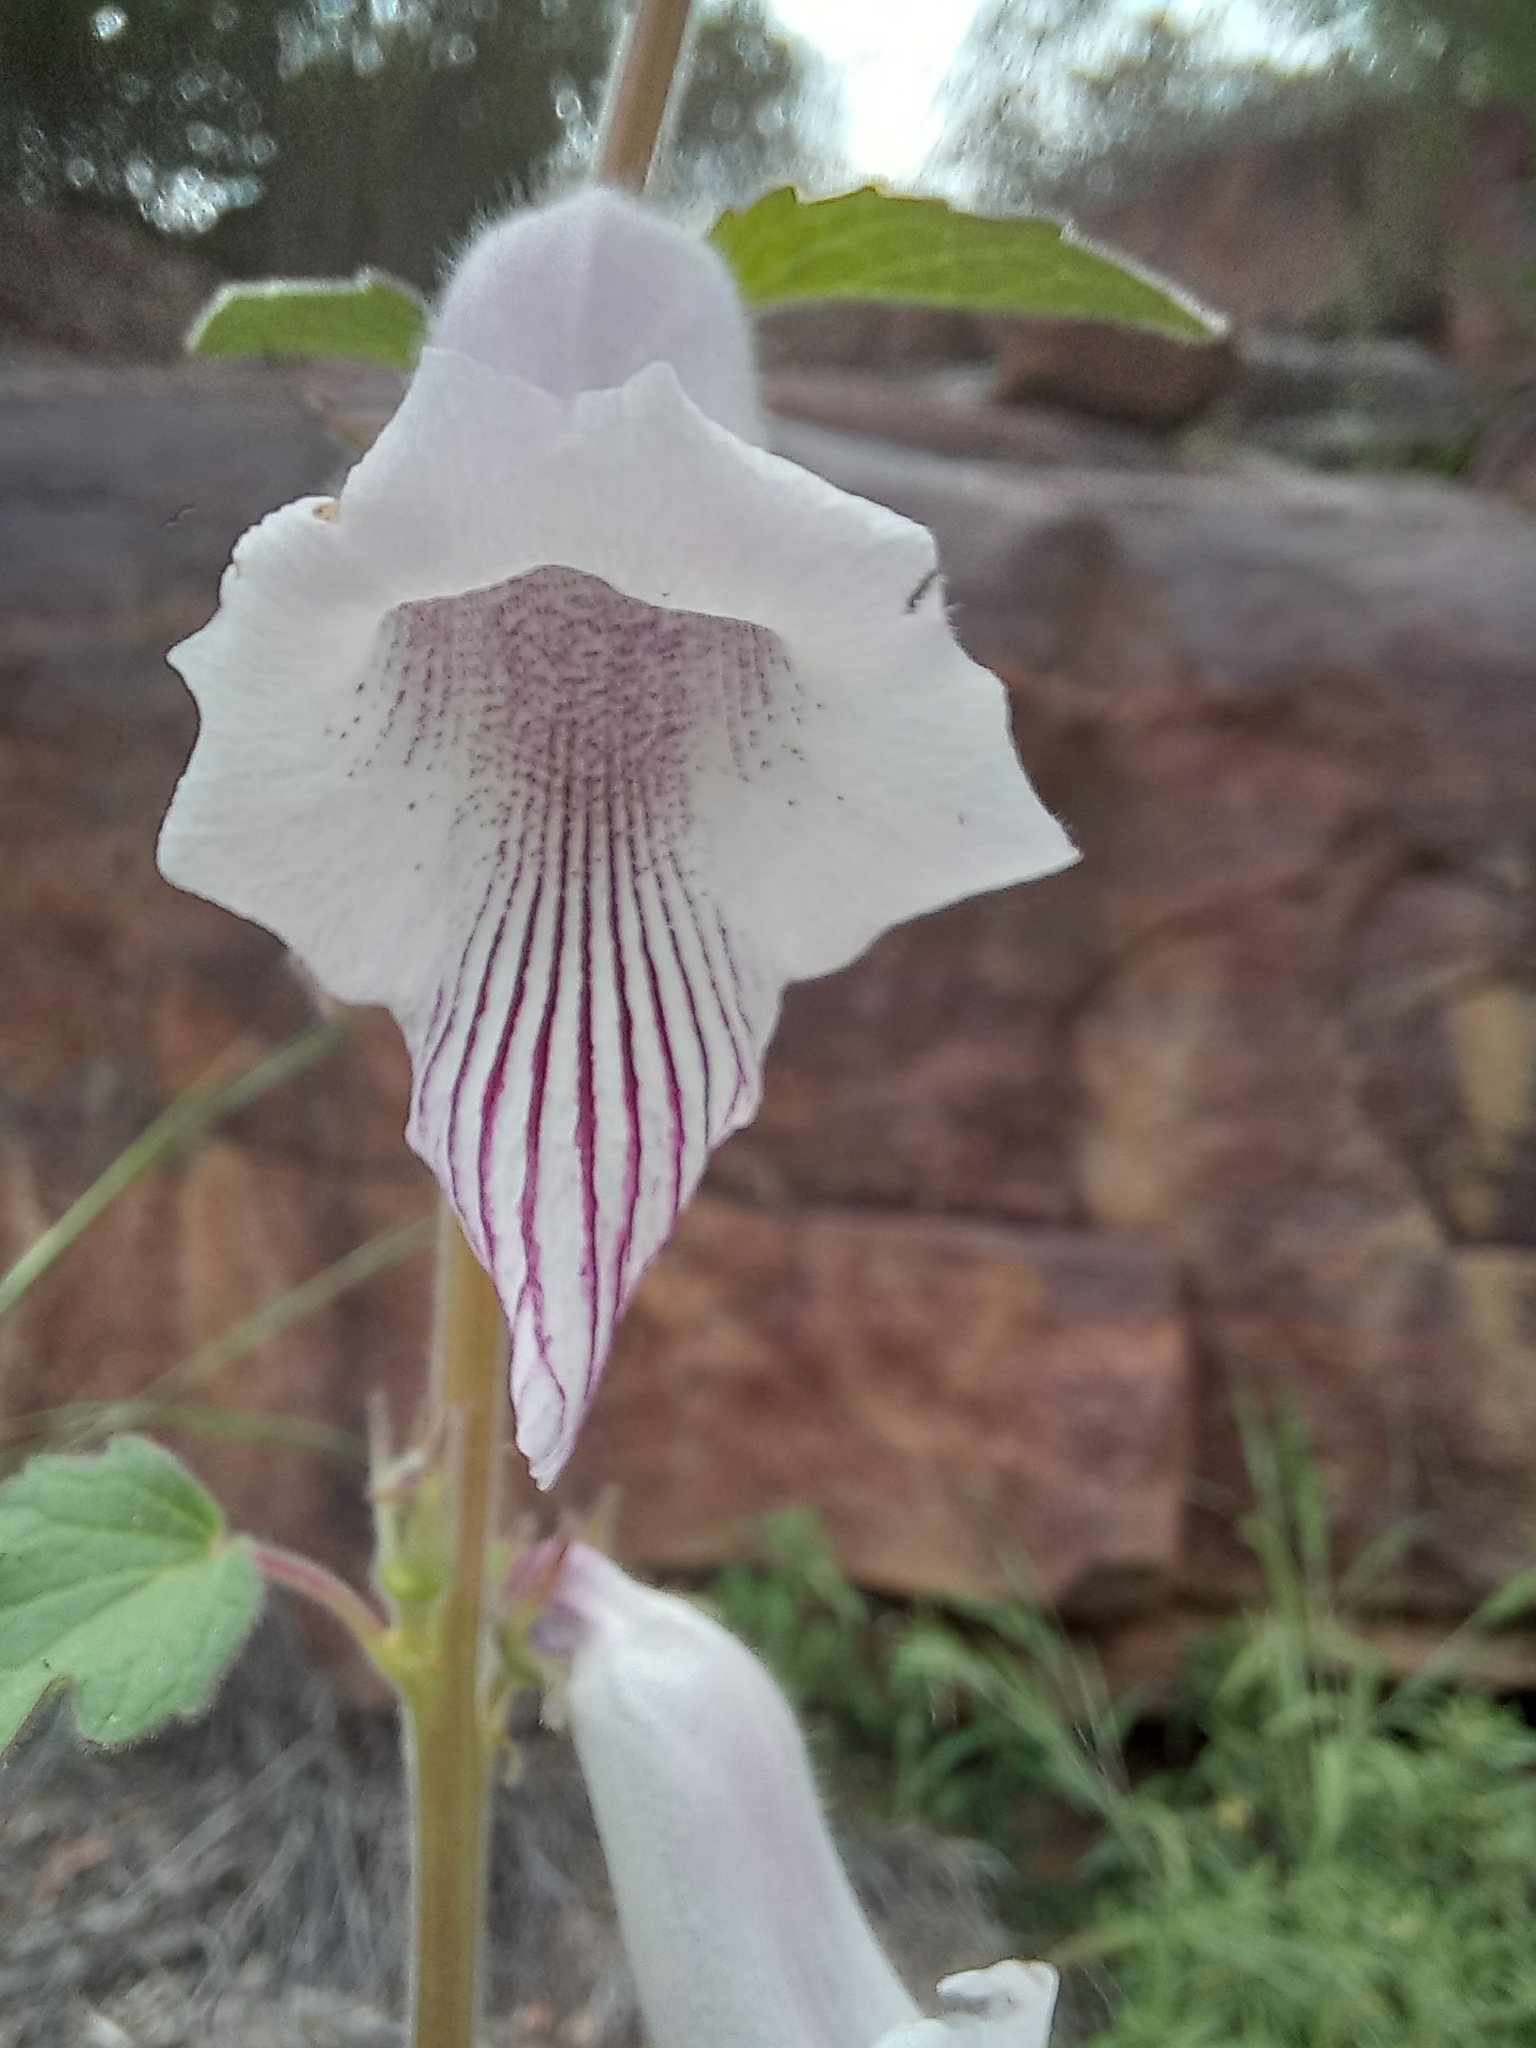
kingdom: Plantae
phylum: Tracheophyta
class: Magnoliopsida
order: Lamiales
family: Pedaliaceae
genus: Sesamum
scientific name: Sesamum trilobum
